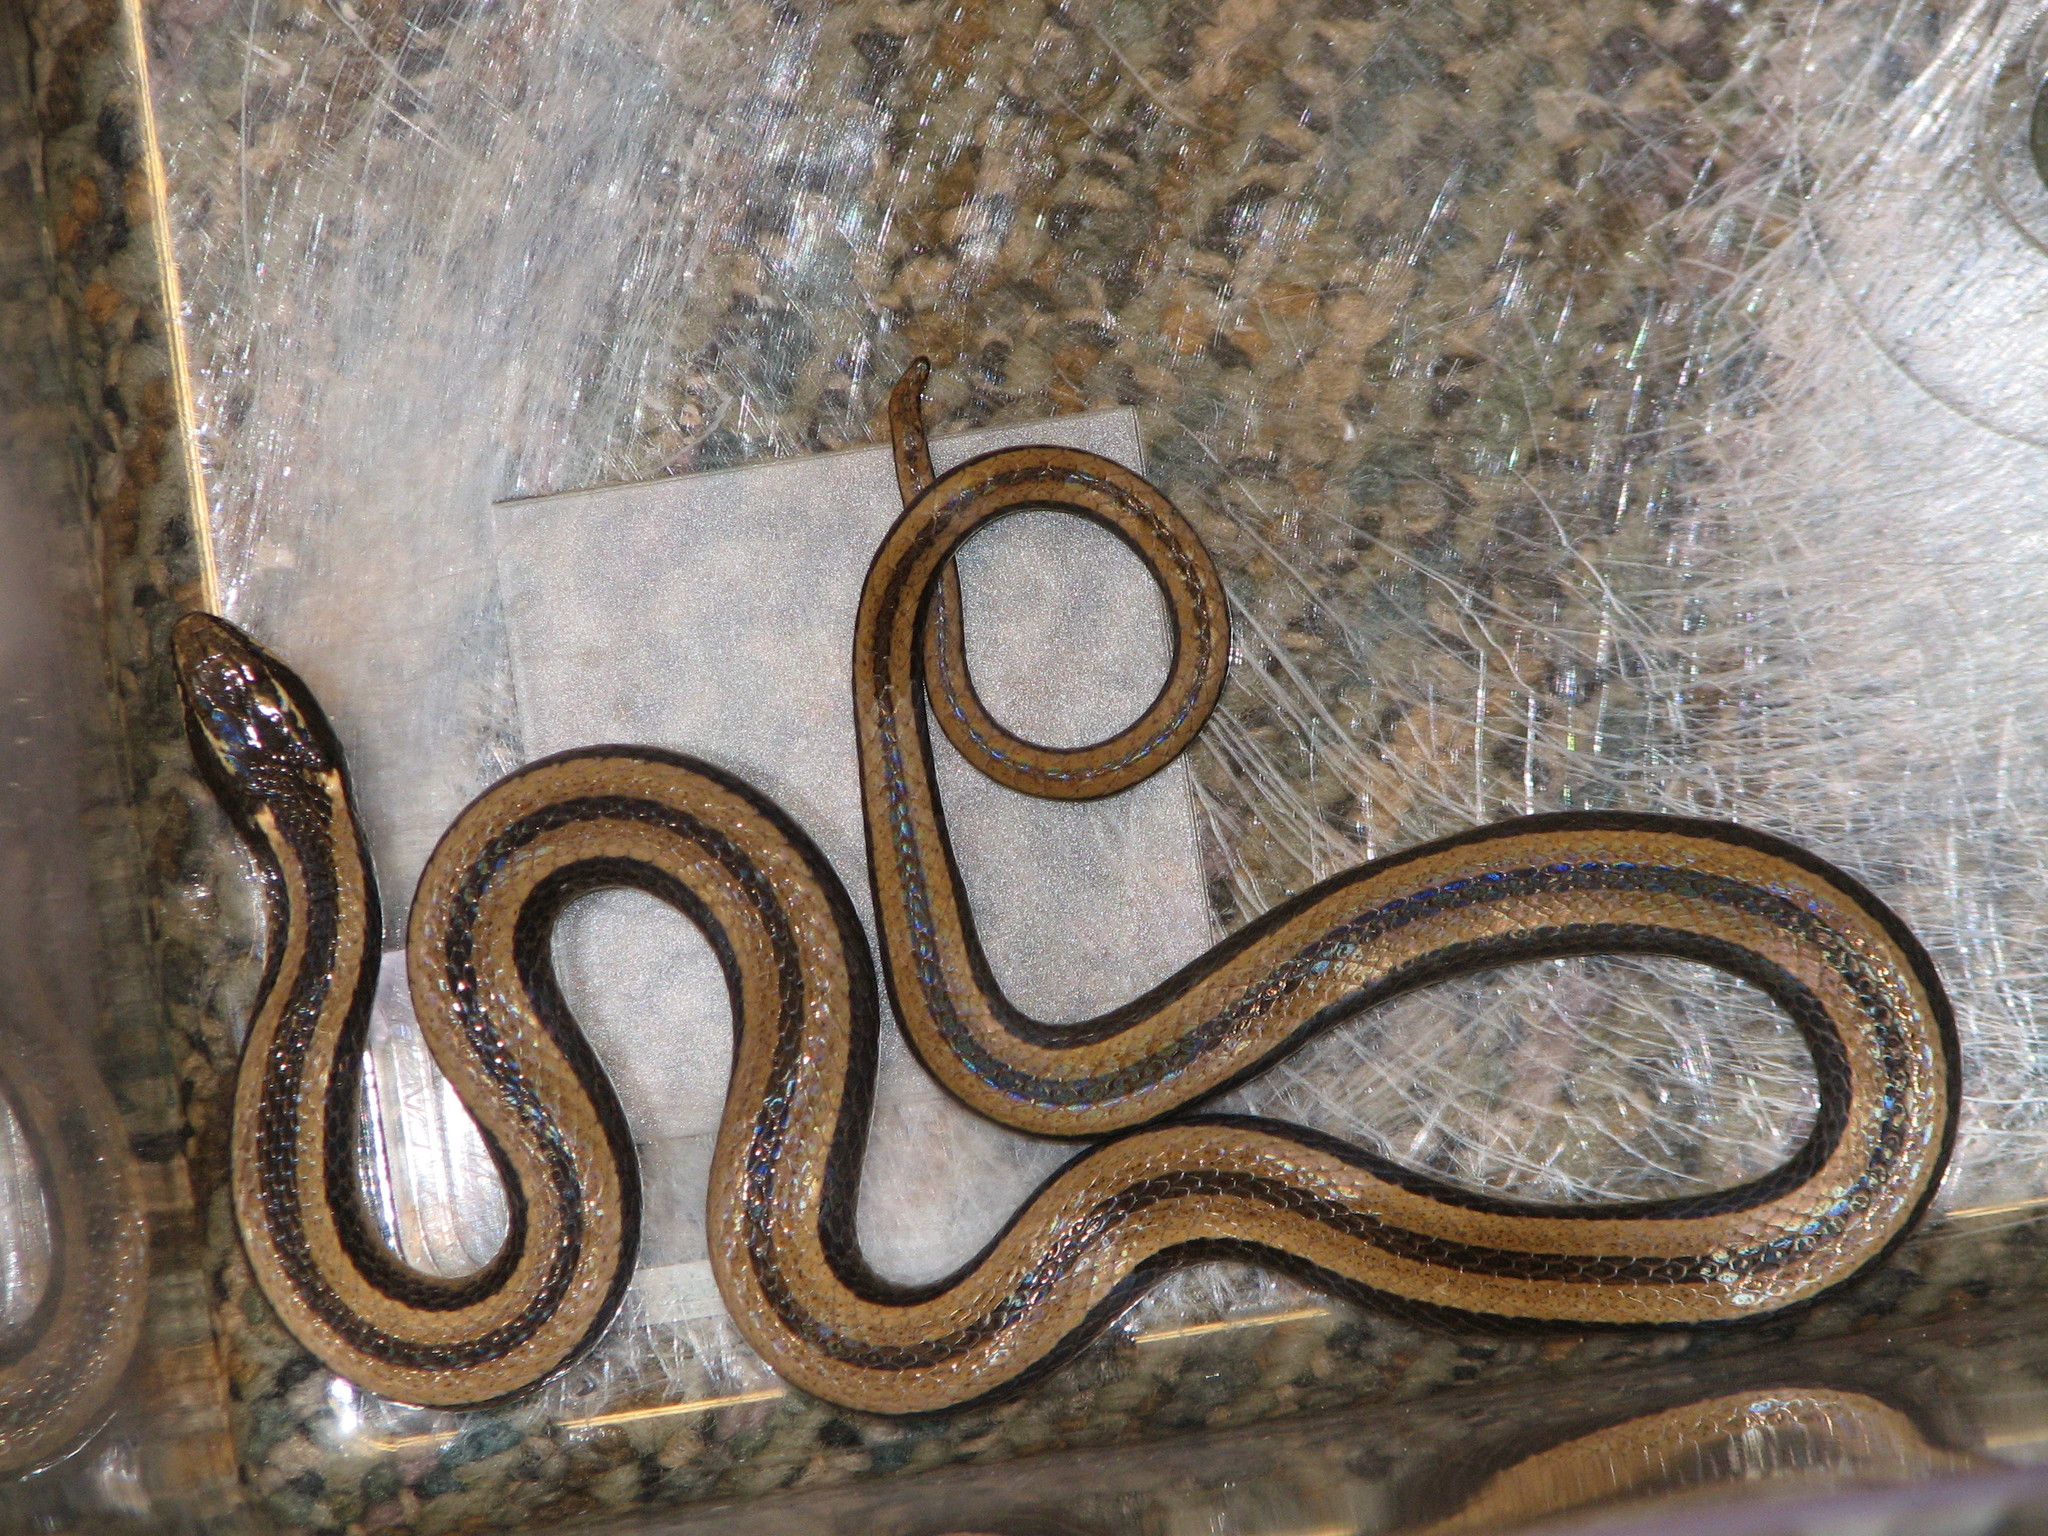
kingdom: Animalia
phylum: Chordata
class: Squamata
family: Colubridae
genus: Coniophanes
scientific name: Coniophanes imperialis
